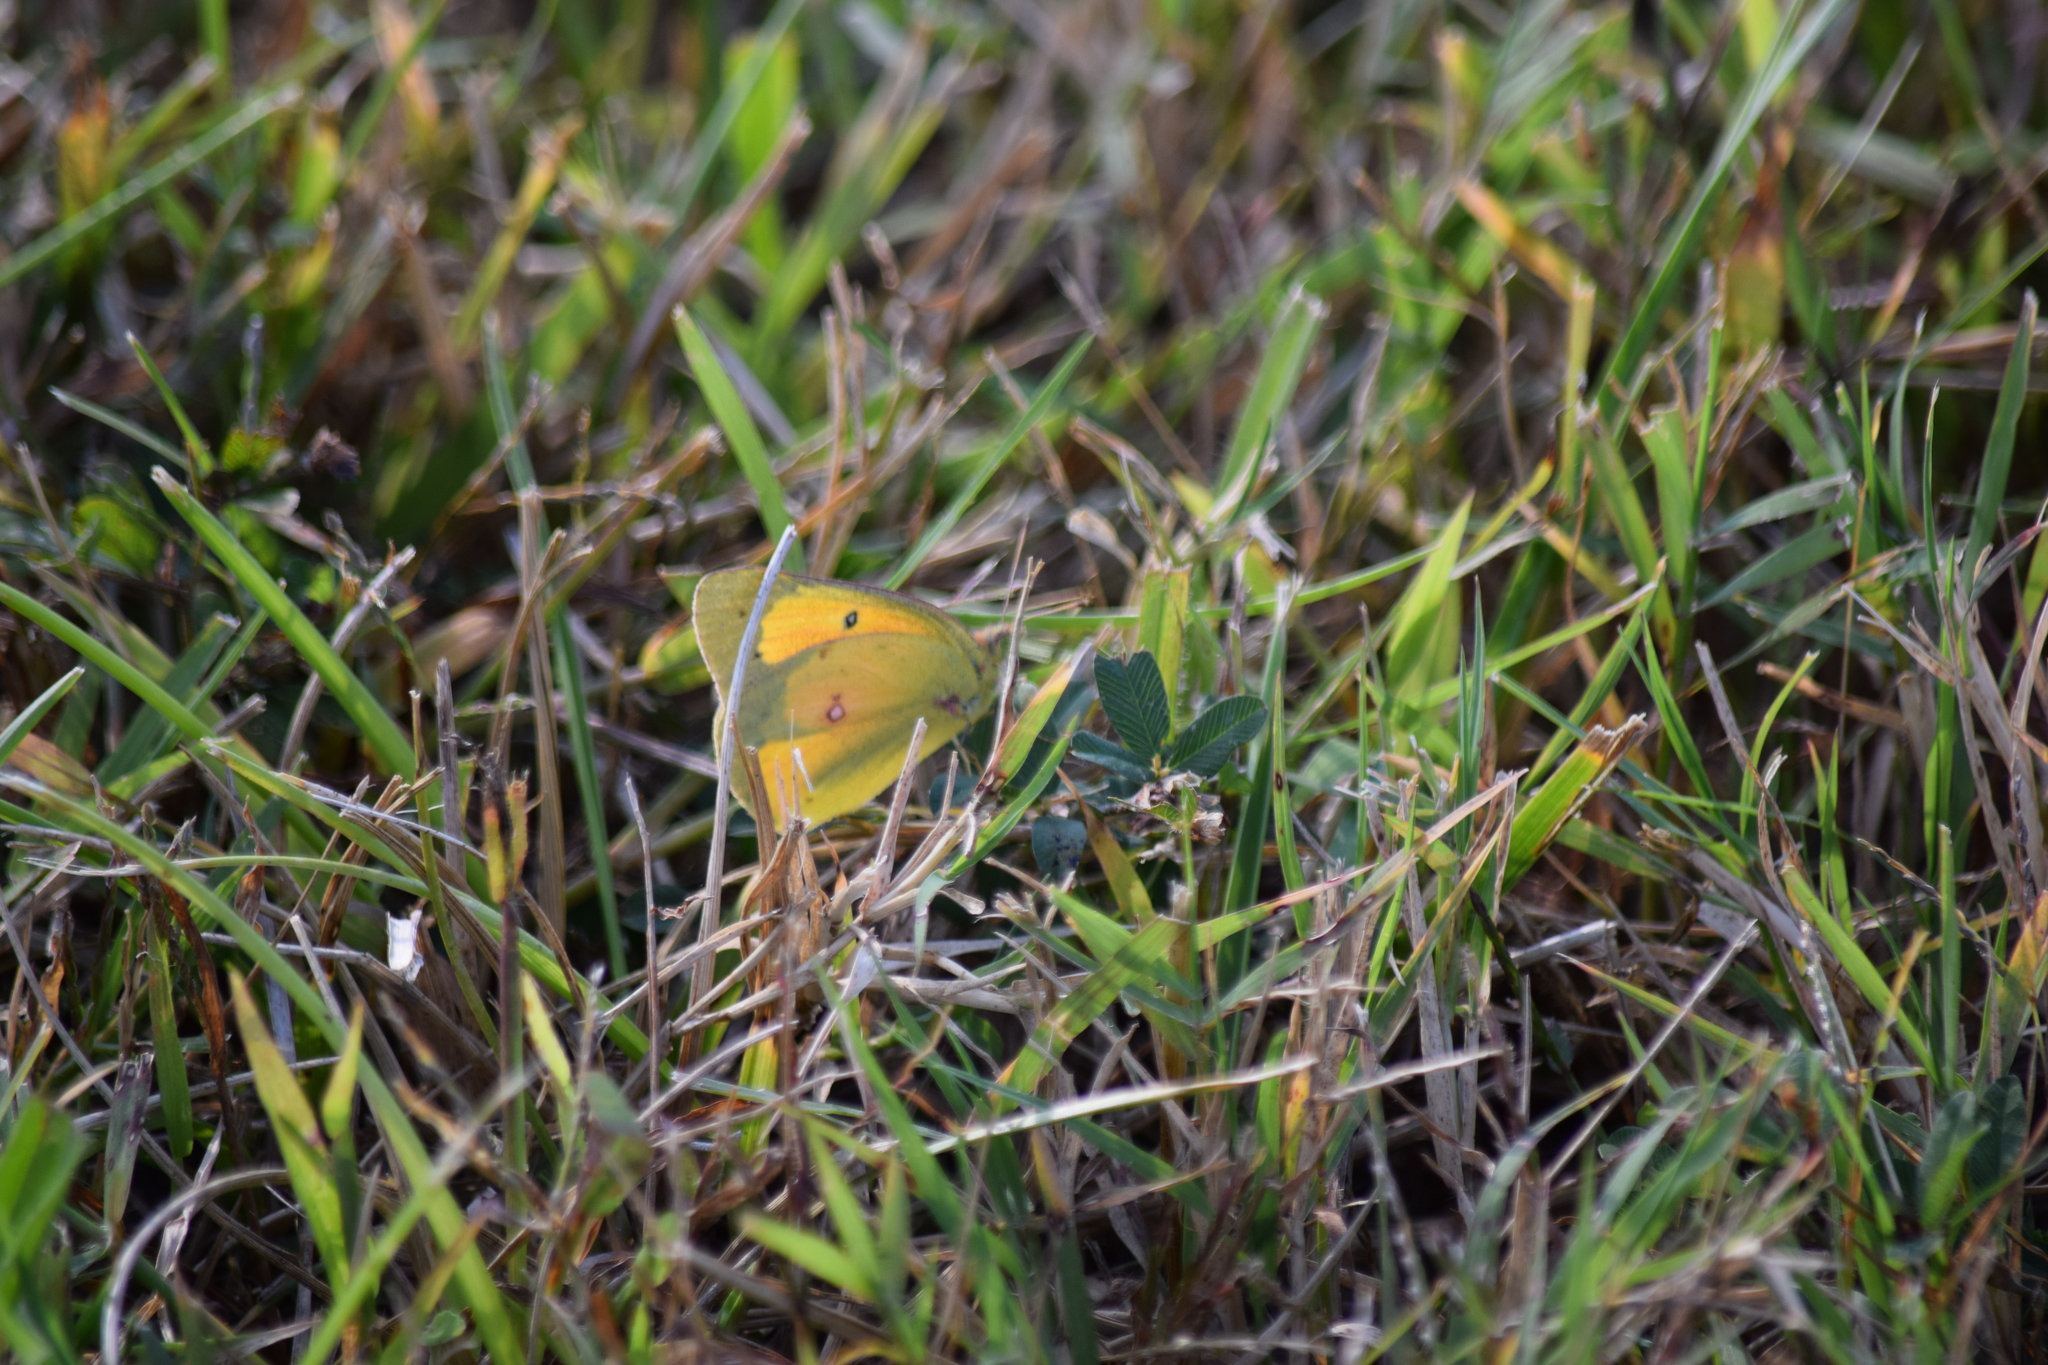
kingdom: Animalia
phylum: Arthropoda
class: Insecta
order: Lepidoptera
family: Pieridae
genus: Colias
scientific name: Colias eurytheme
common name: Alfalfa butterfly
